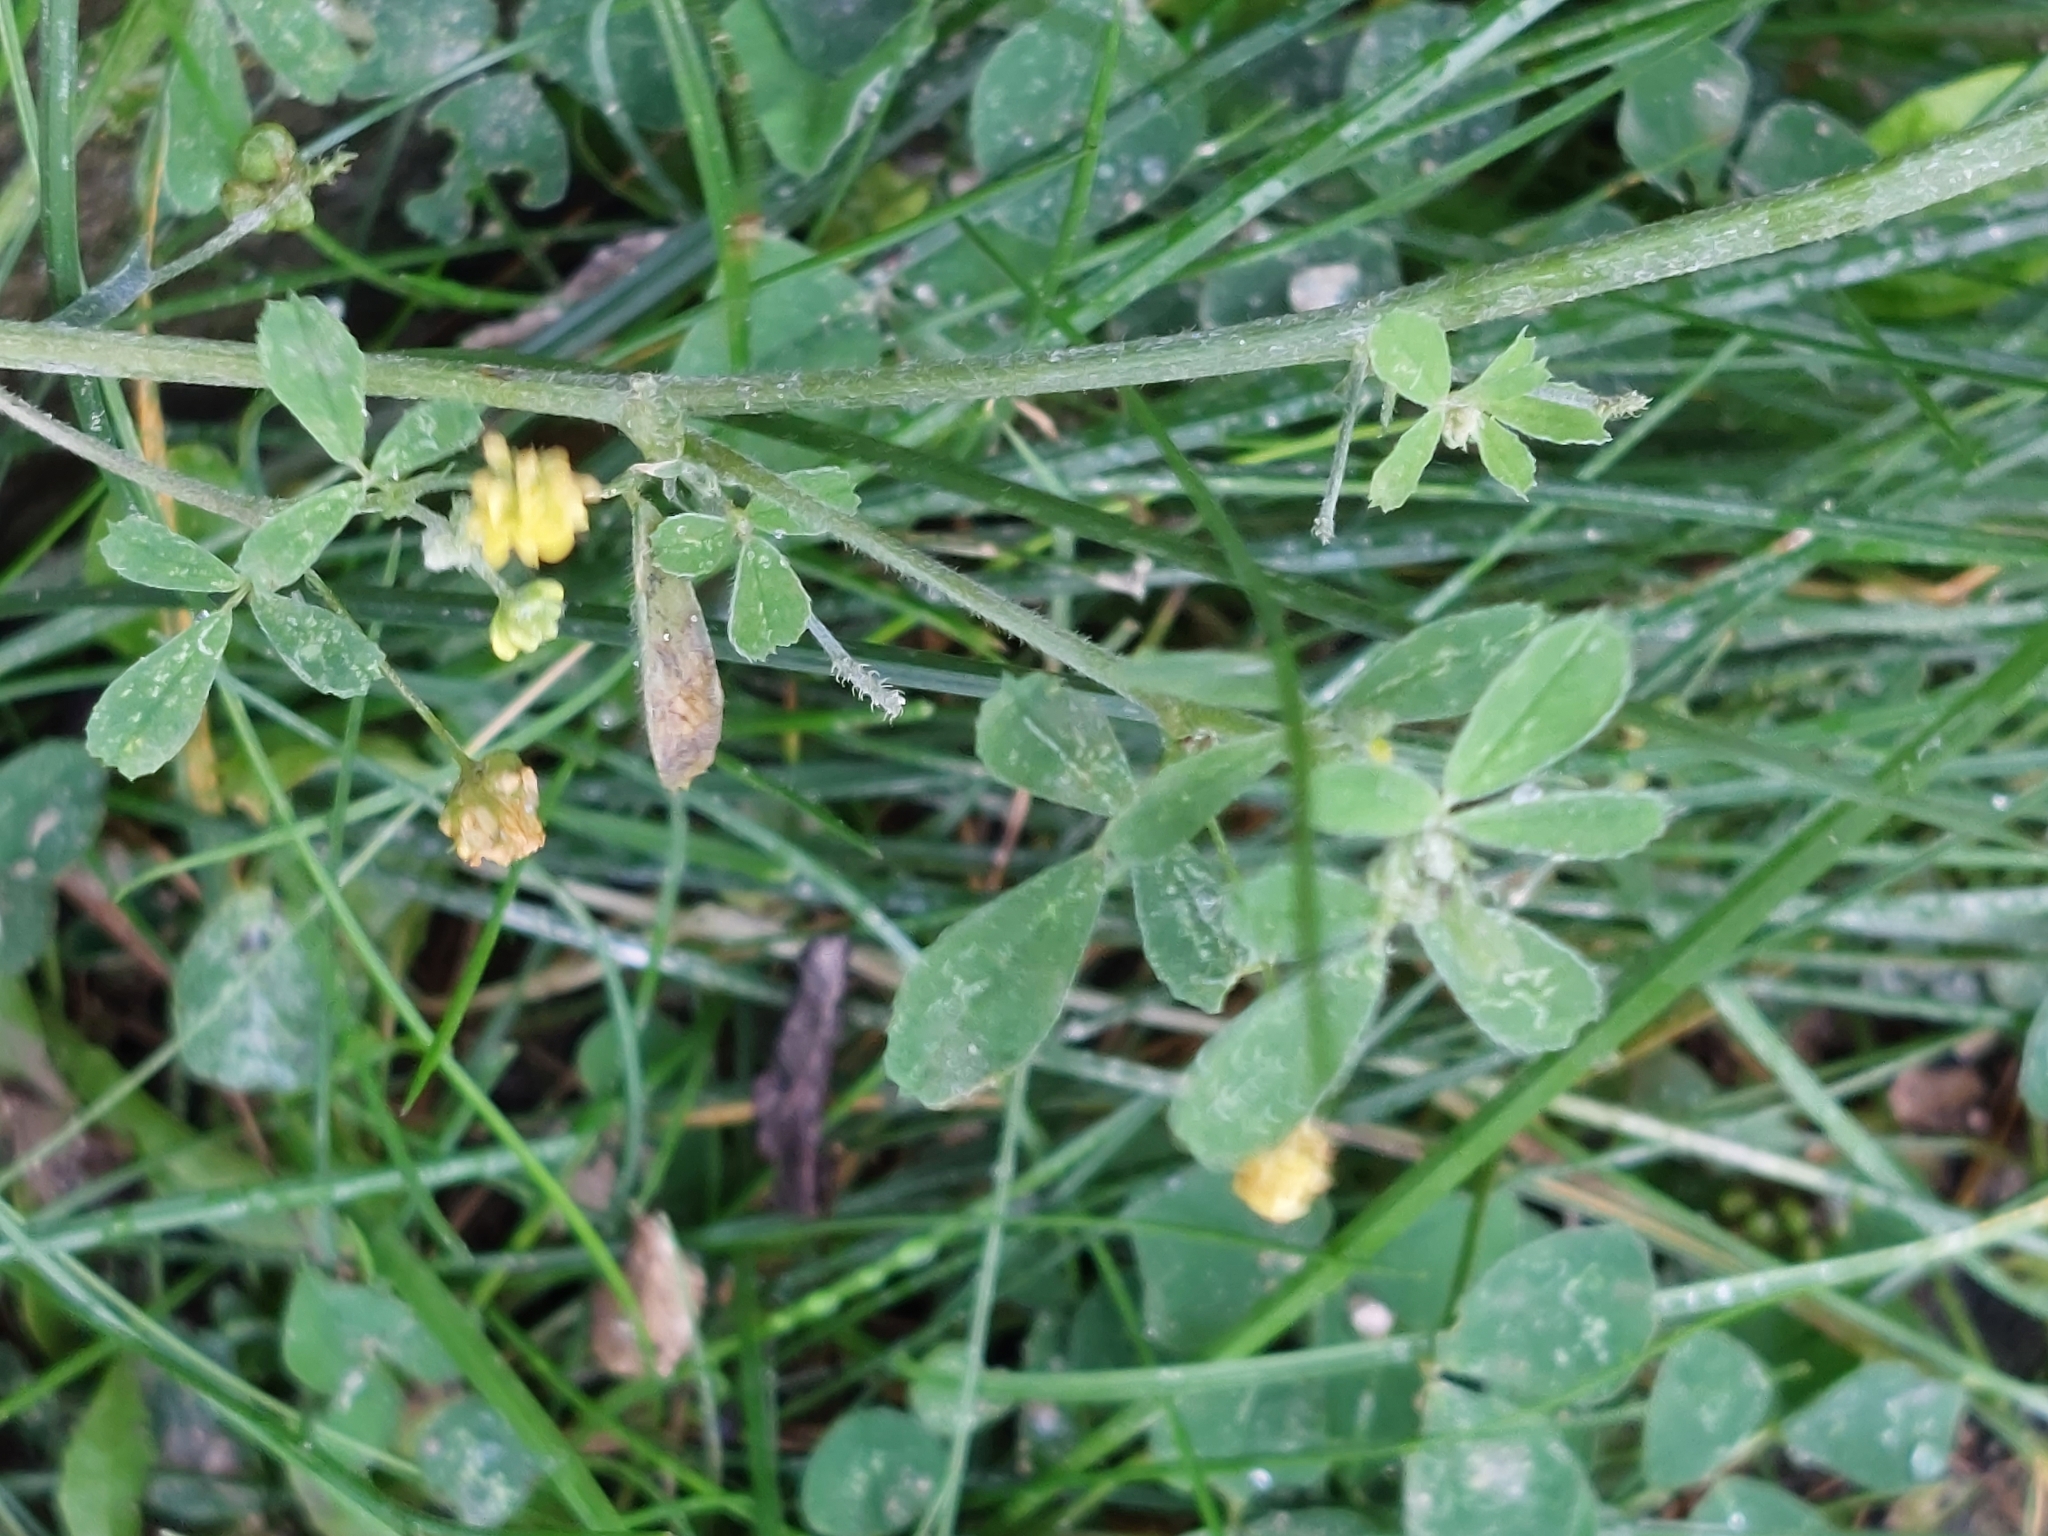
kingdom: Plantae
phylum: Tracheophyta
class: Magnoliopsida
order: Fabales
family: Fabaceae
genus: Medicago
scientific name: Medicago lupulina
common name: Black medick
